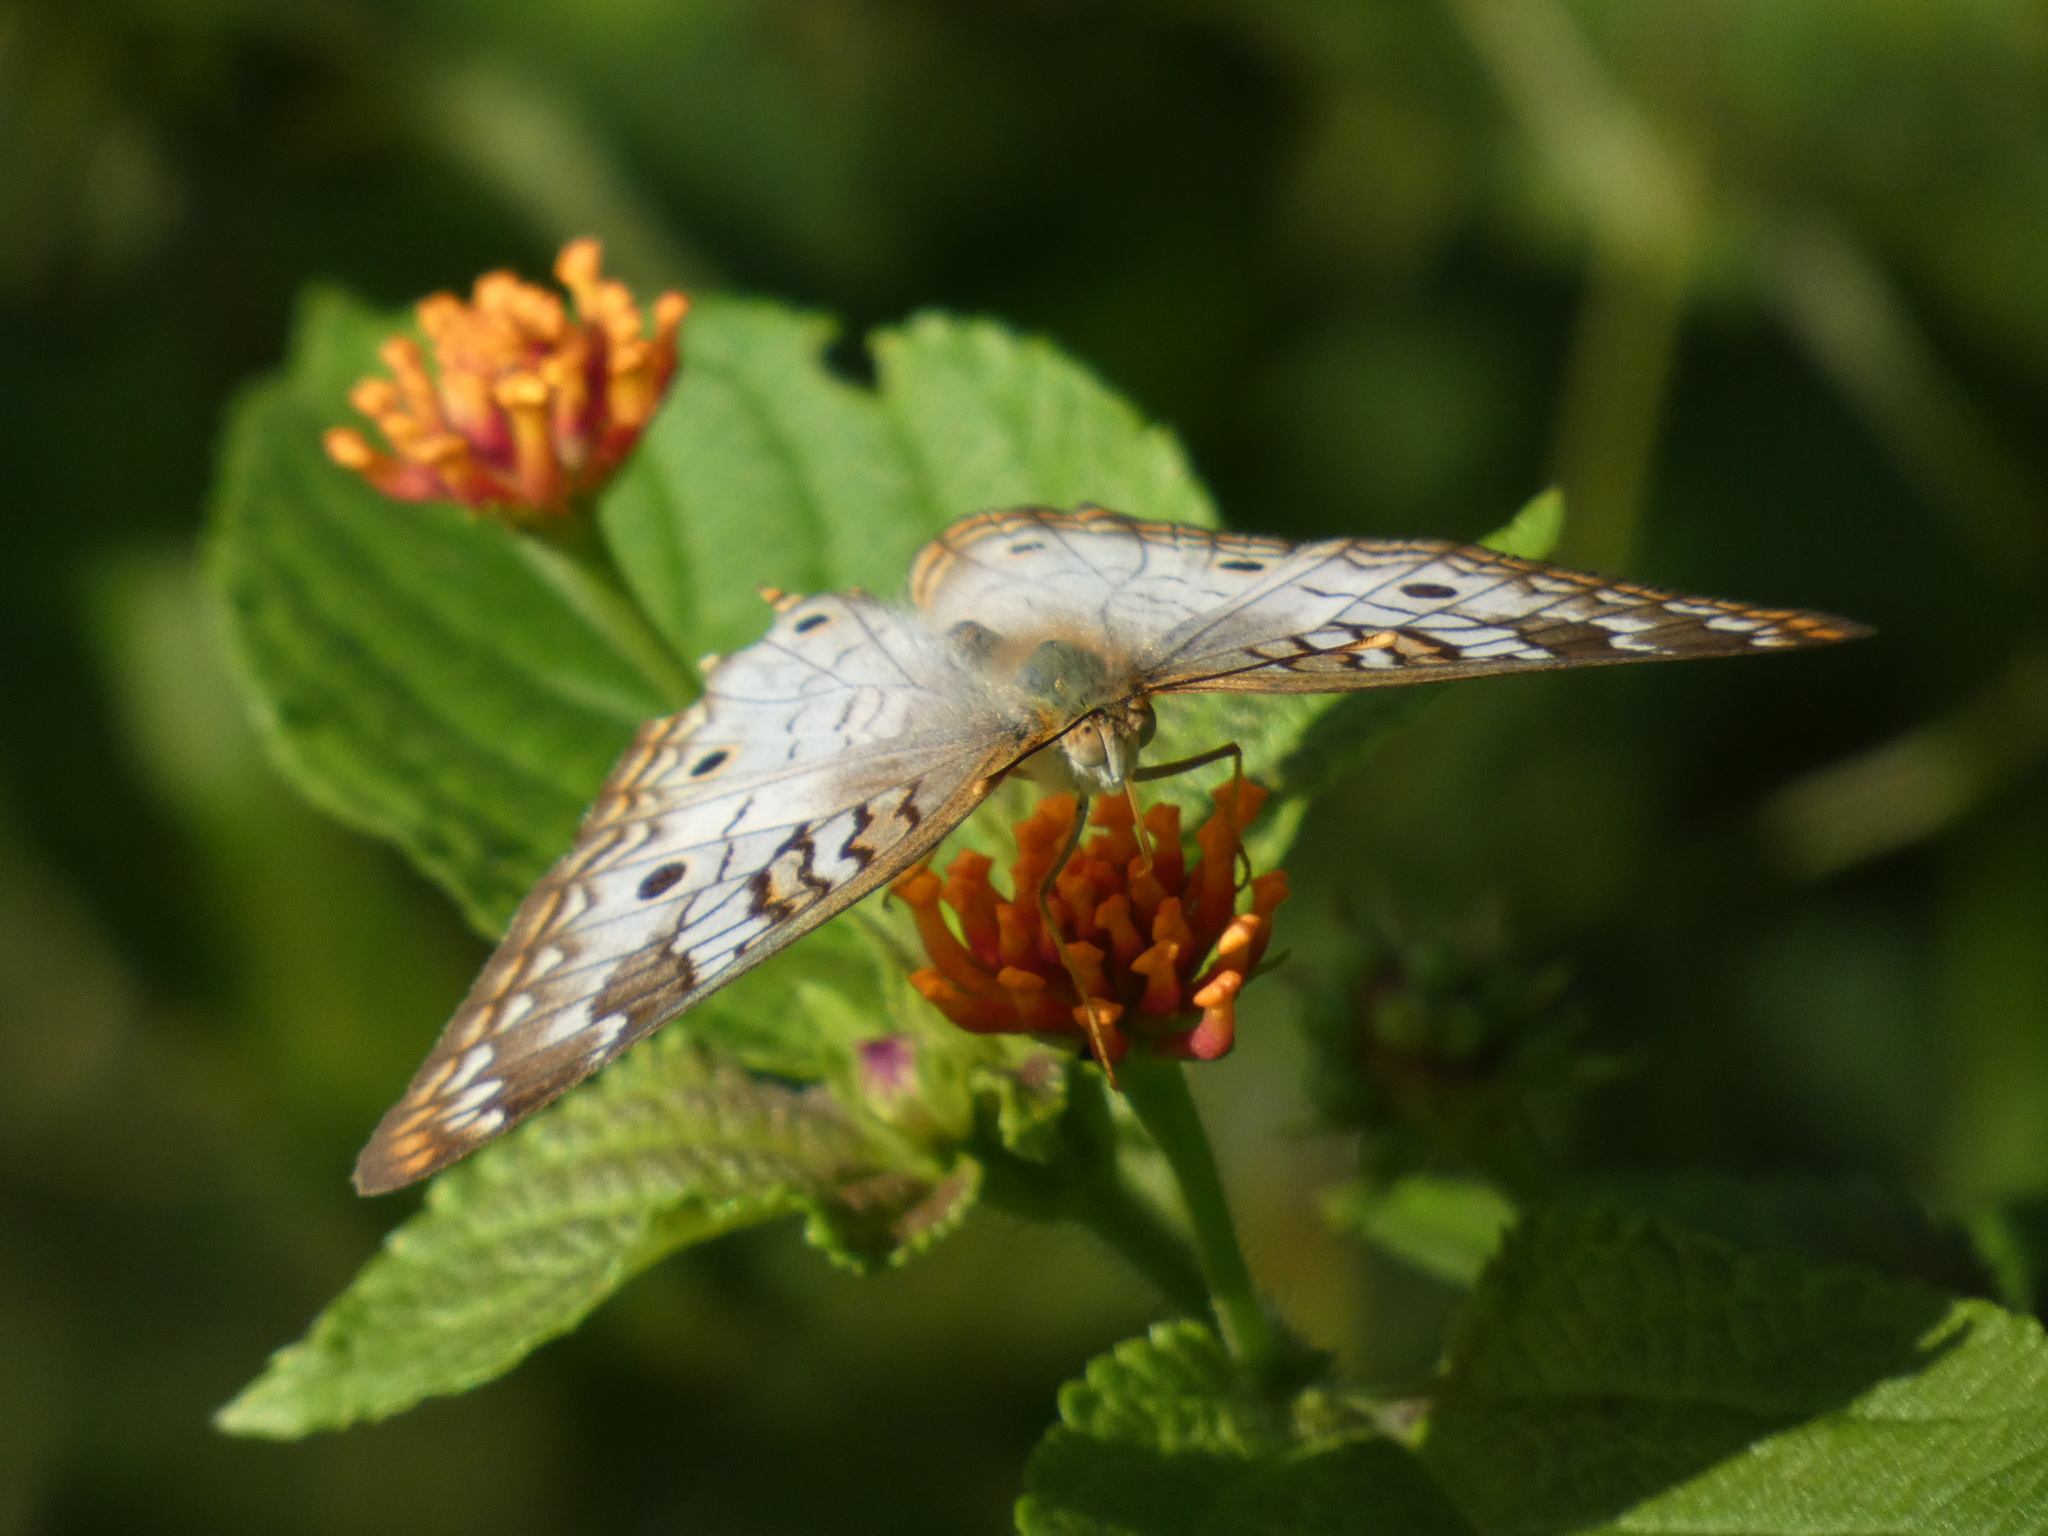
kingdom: Animalia
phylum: Arthropoda
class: Insecta
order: Lepidoptera
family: Nymphalidae
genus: Anartia
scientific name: Anartia jatrophae
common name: White peacock
